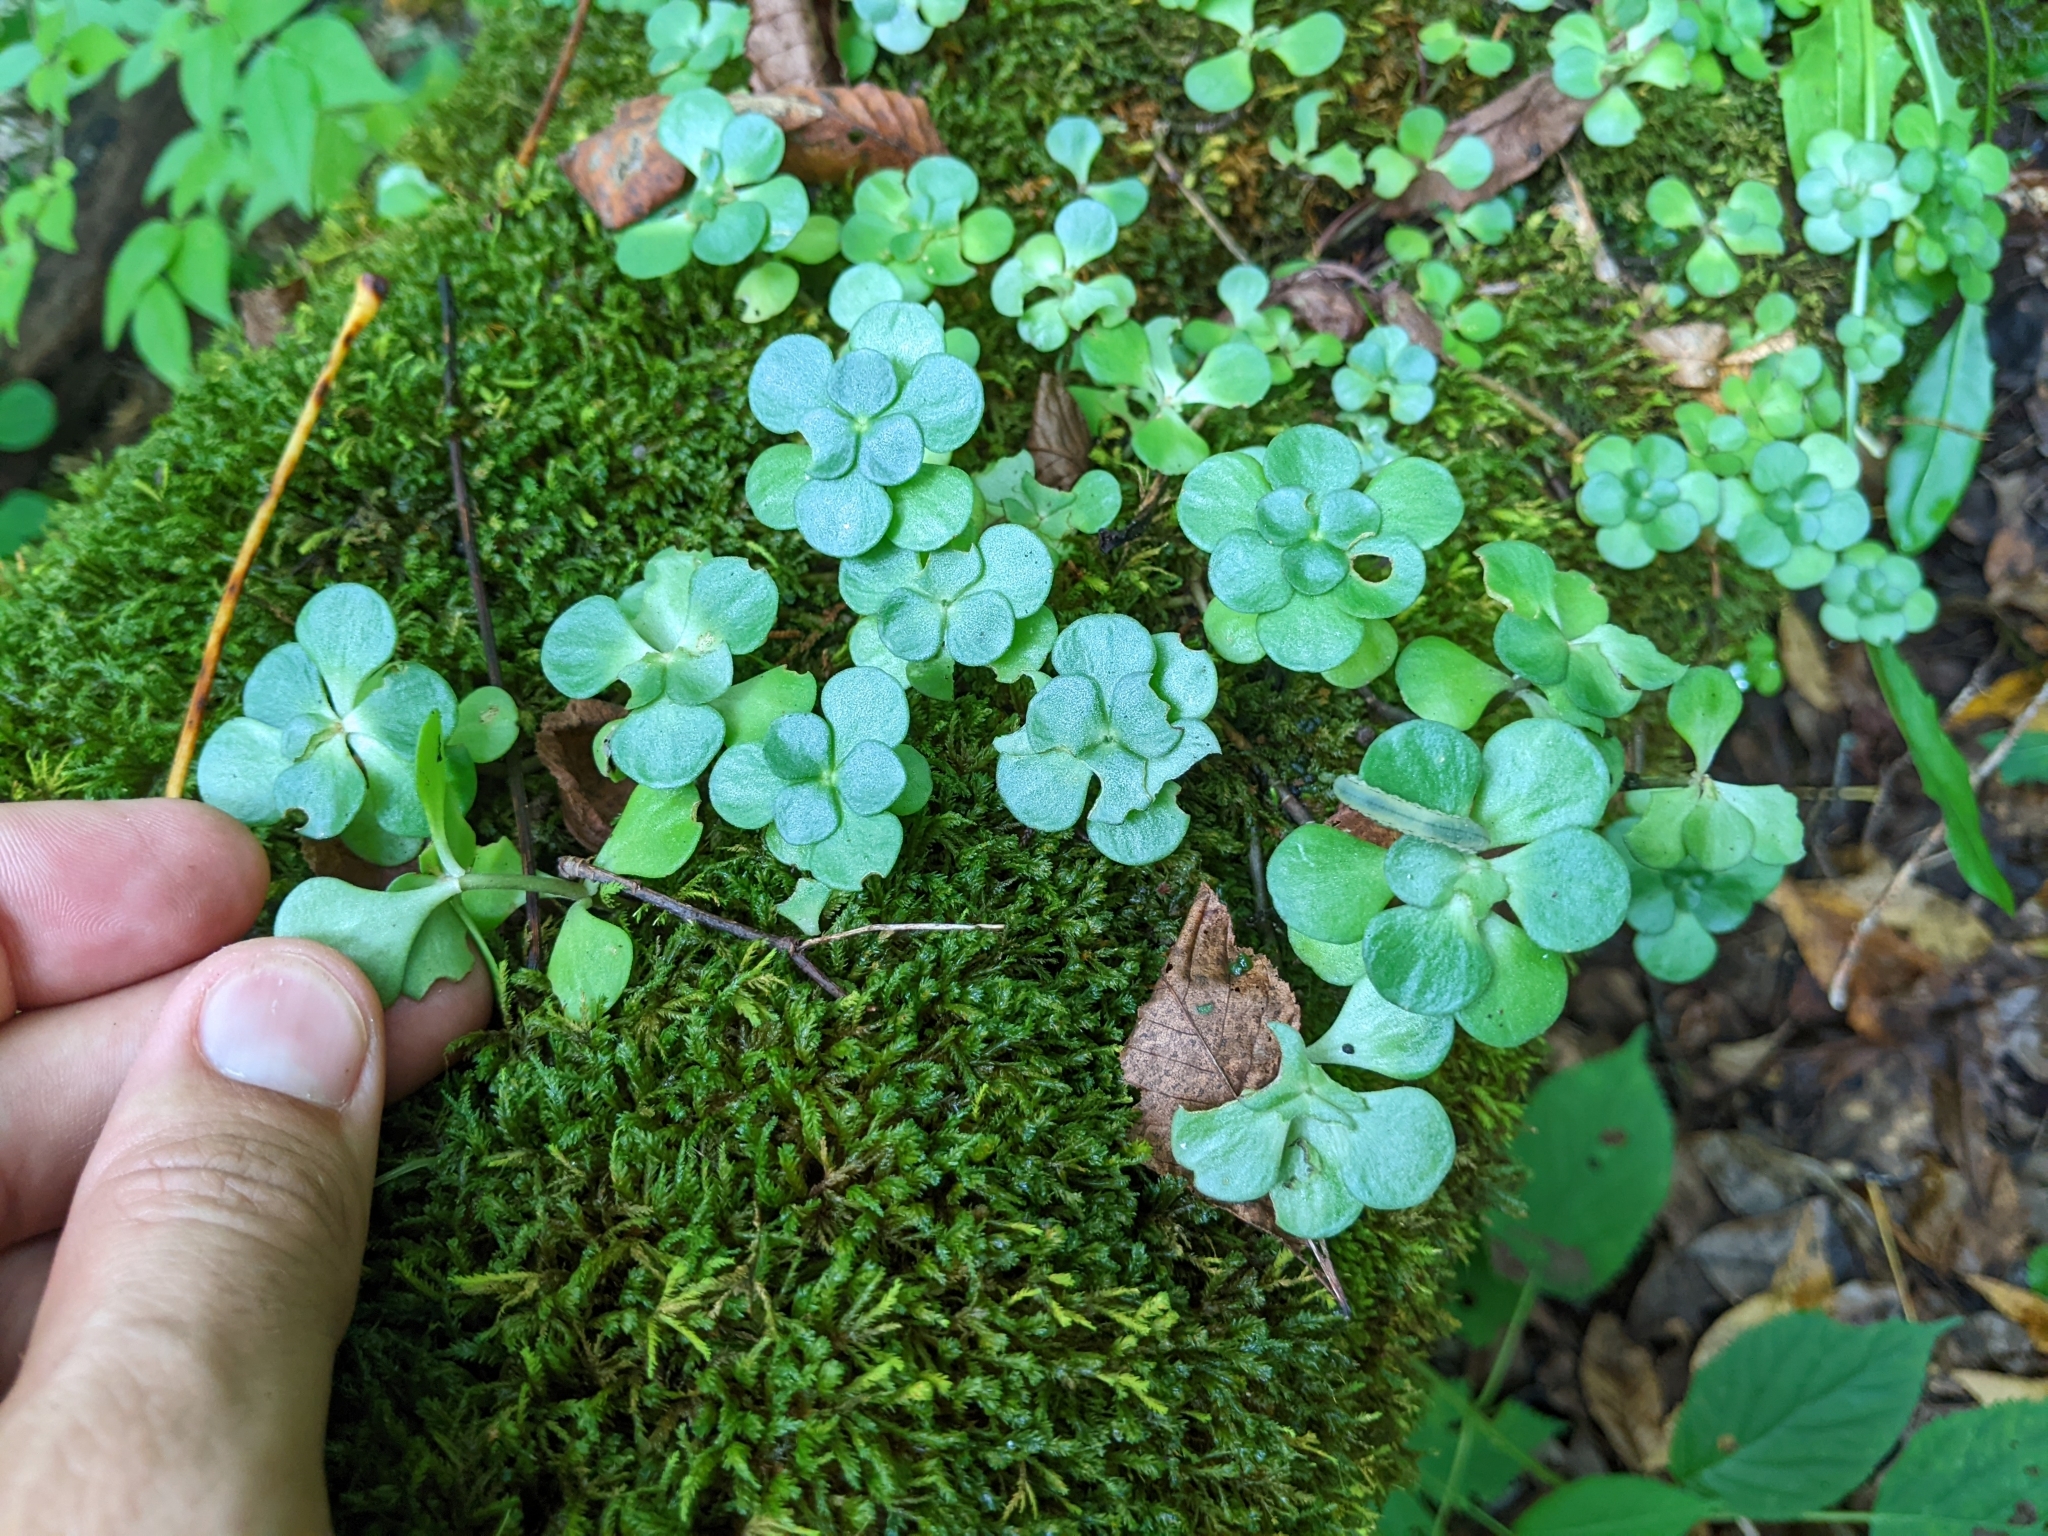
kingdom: Plantae
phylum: Tracheophyta
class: Magnoliopsida
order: Saxifragales
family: Crassulaceae
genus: Sedum
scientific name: Sedum ternatum
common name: Wild stonecrop
